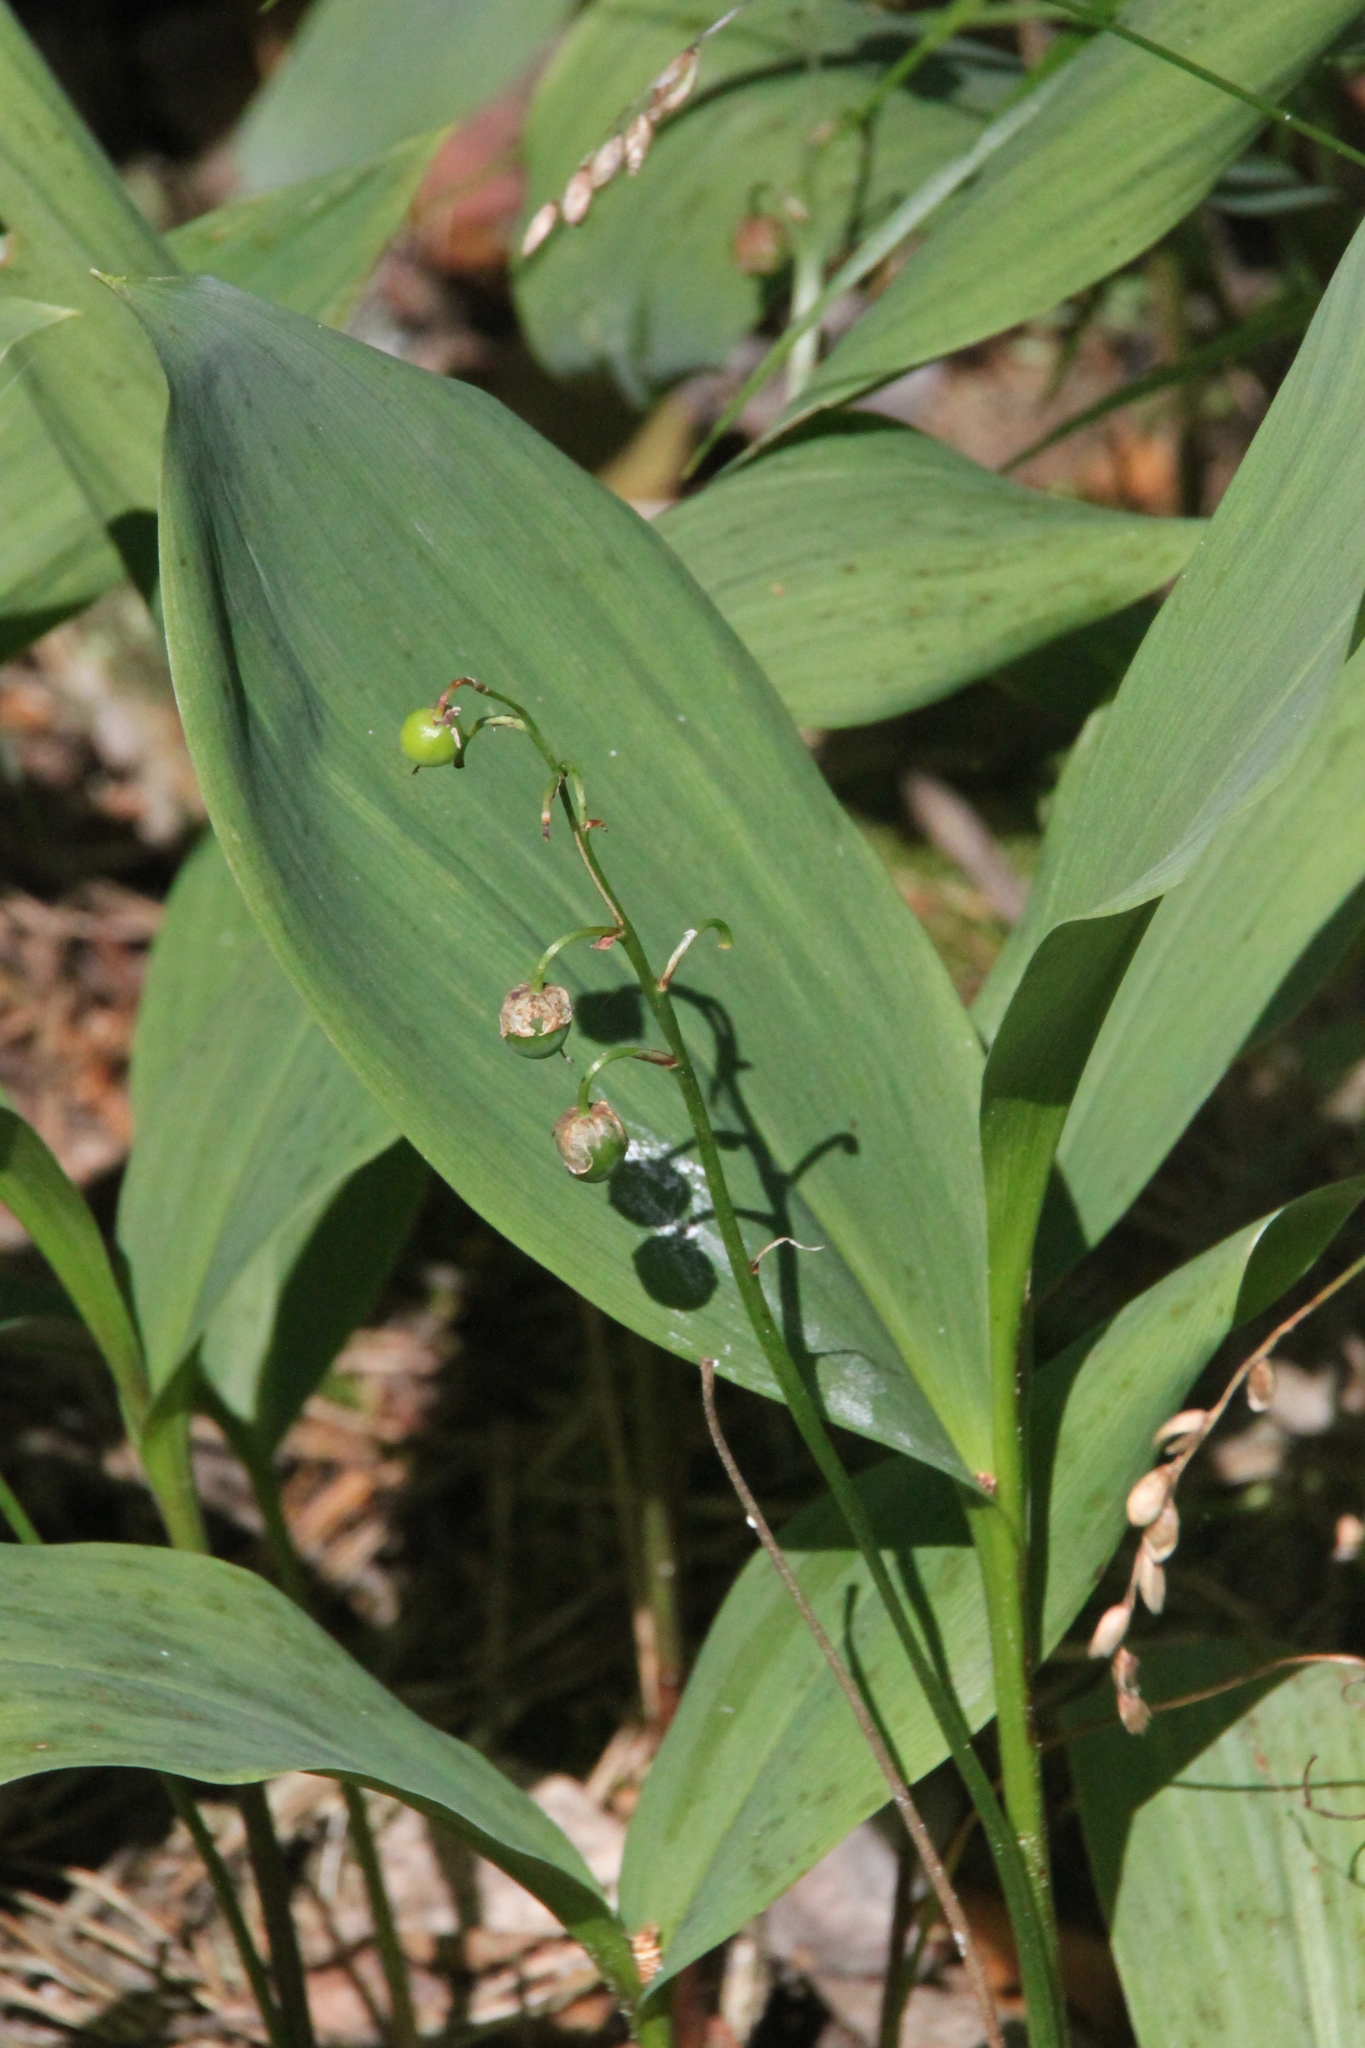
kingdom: Plantae
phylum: Tracheophyta
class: Liliopsida
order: Asparagales
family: Asparagaceae
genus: Convallaria
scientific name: Convallaria majalis
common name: Lily-of-the-valley
